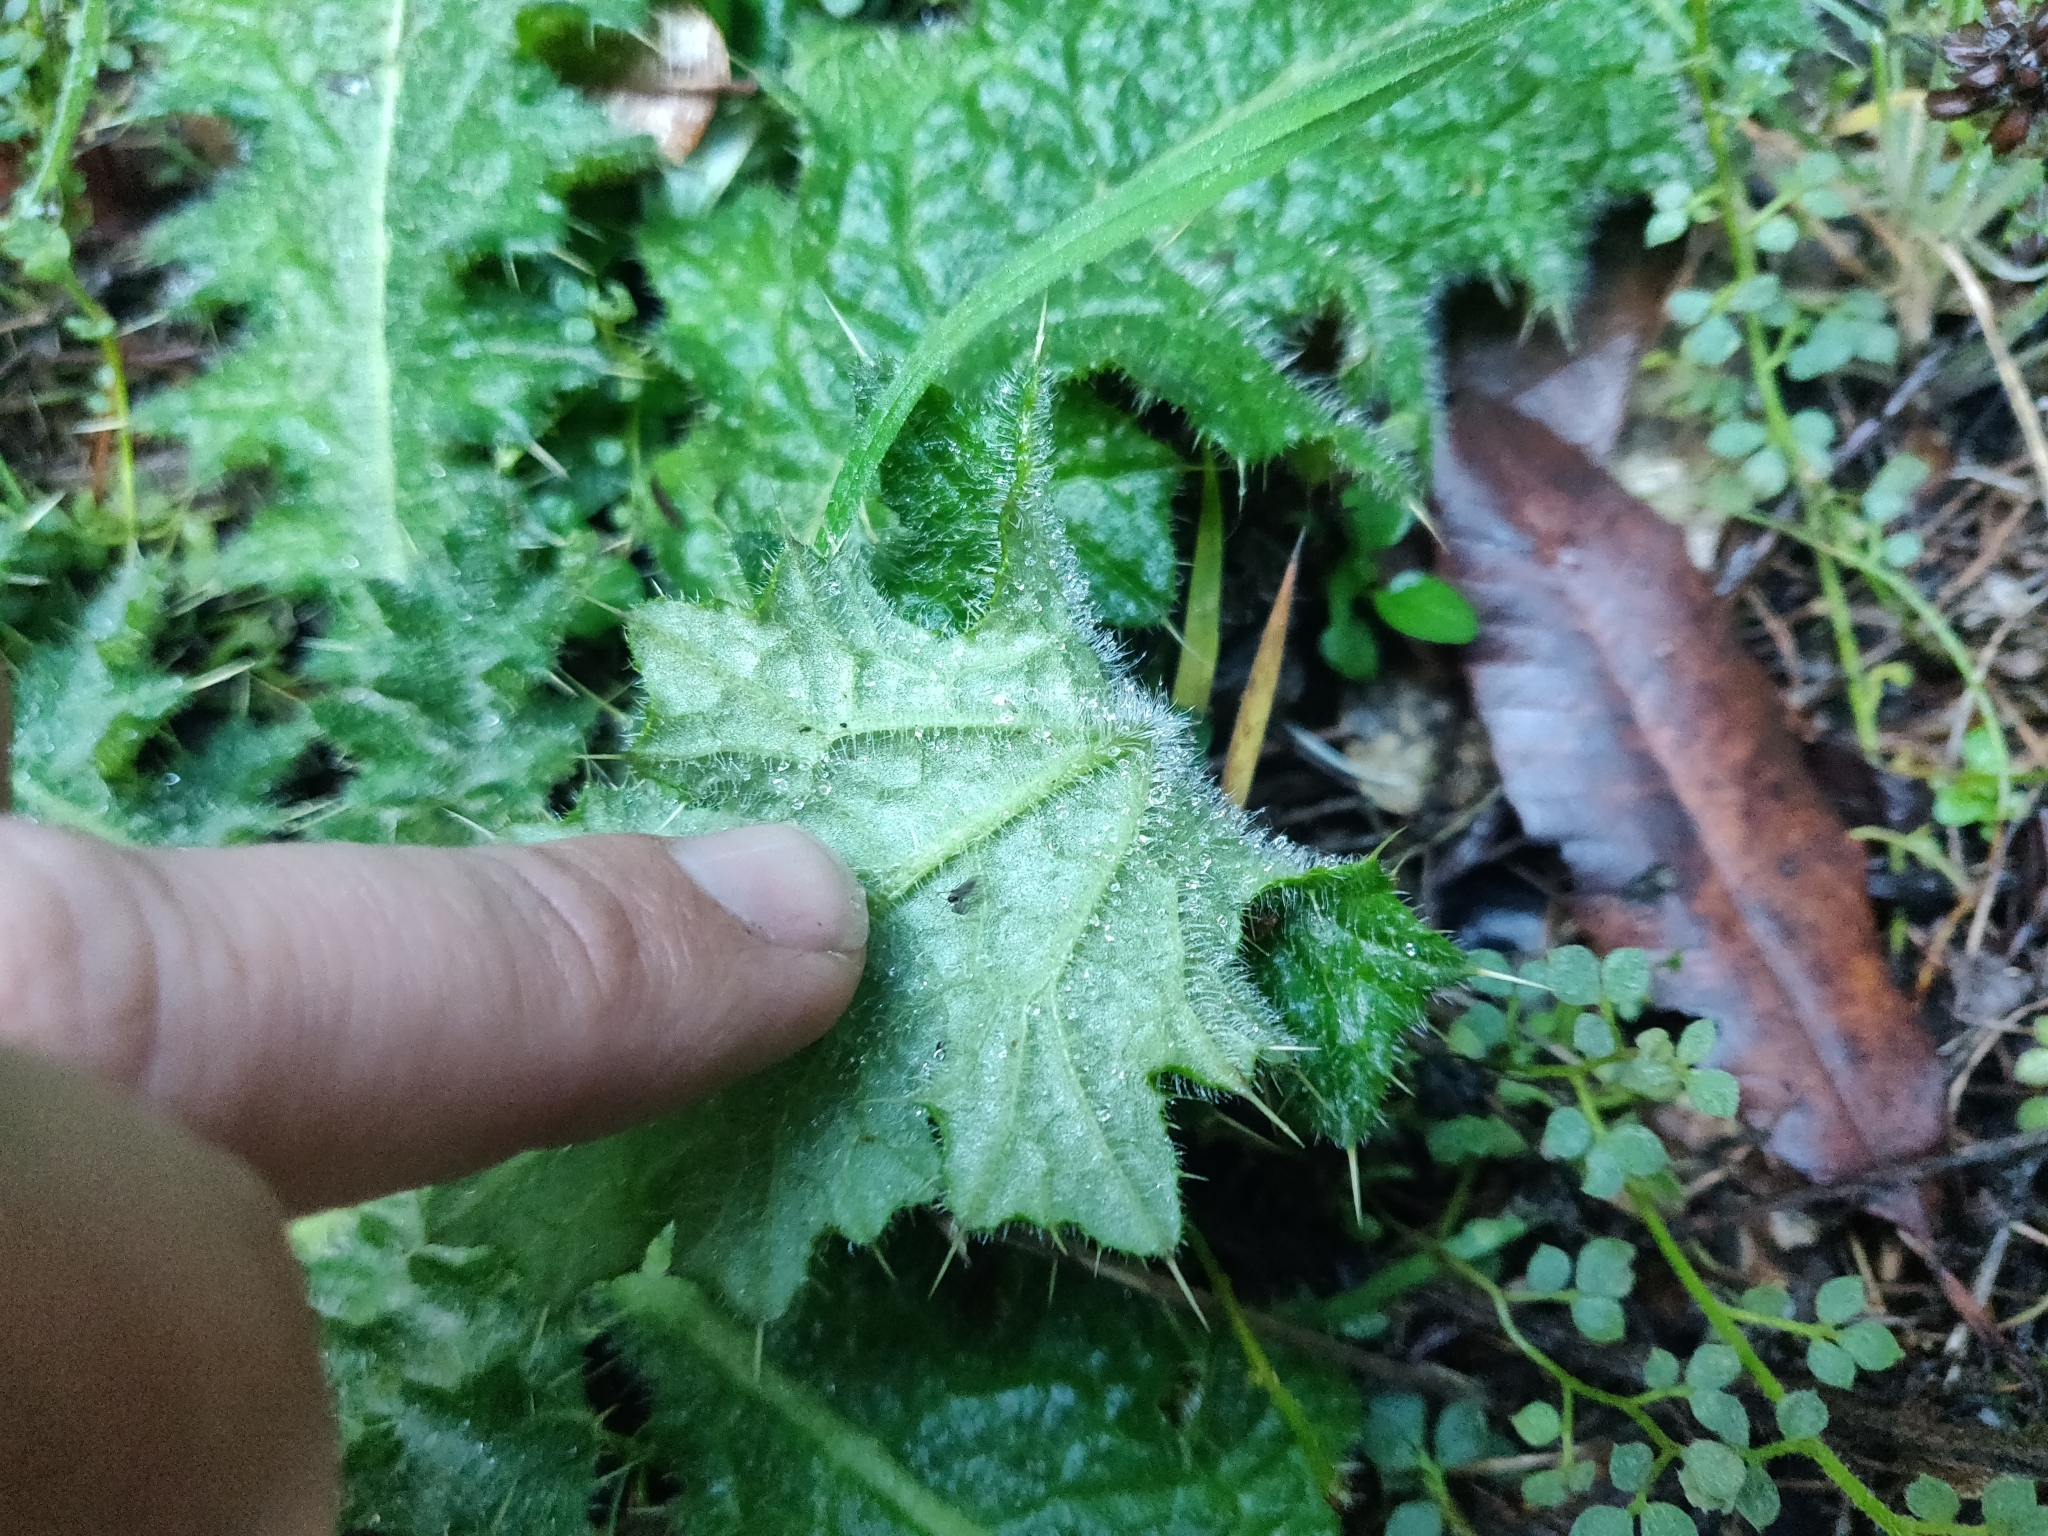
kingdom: Plantae
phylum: Tracheophyta
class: Magnoliopsida
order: Asterales
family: Asteraceae
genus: Cirsium
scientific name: Cirsium vulgare
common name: Bull thistle
